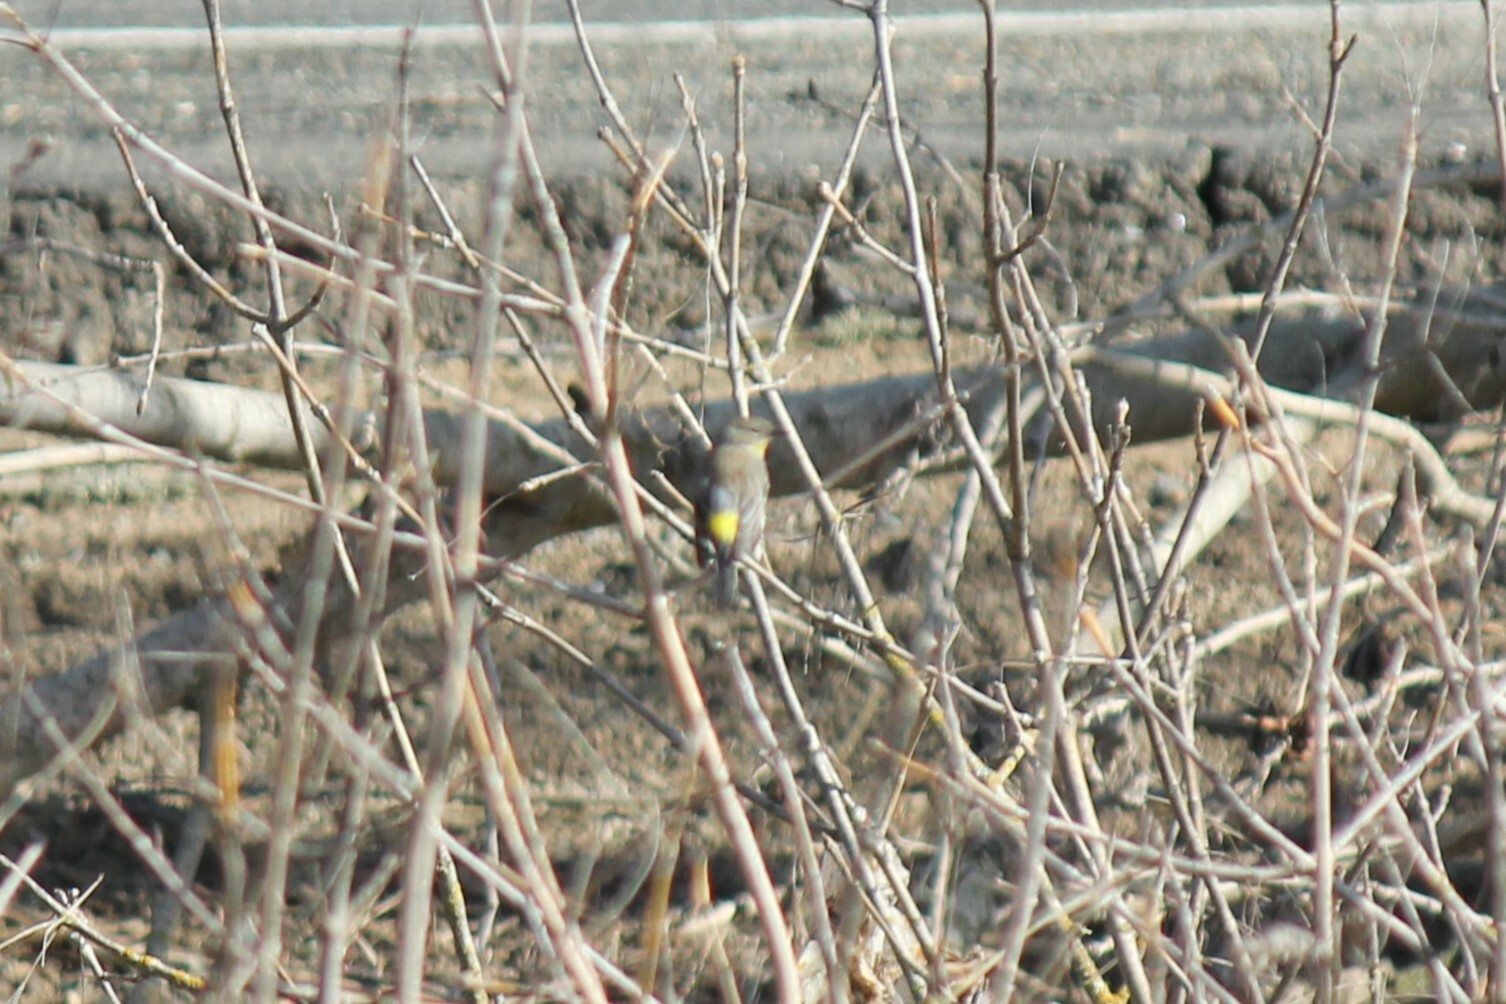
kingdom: Animalia
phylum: Chordata
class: Aves
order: Passeriformes
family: Parulidae
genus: Setophaga
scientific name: Setophaga coronata
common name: Myrtle warbler
